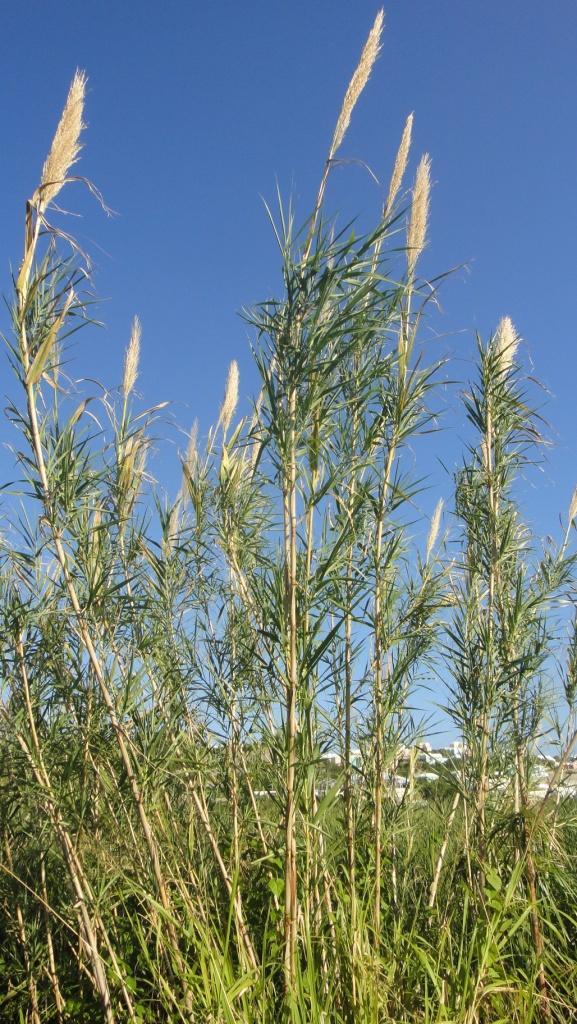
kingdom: Plantae
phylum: Tracheophyta
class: Liliopsida
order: Poales
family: Poaceae
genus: Arundo
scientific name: Arundo donax
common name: Giant reed
